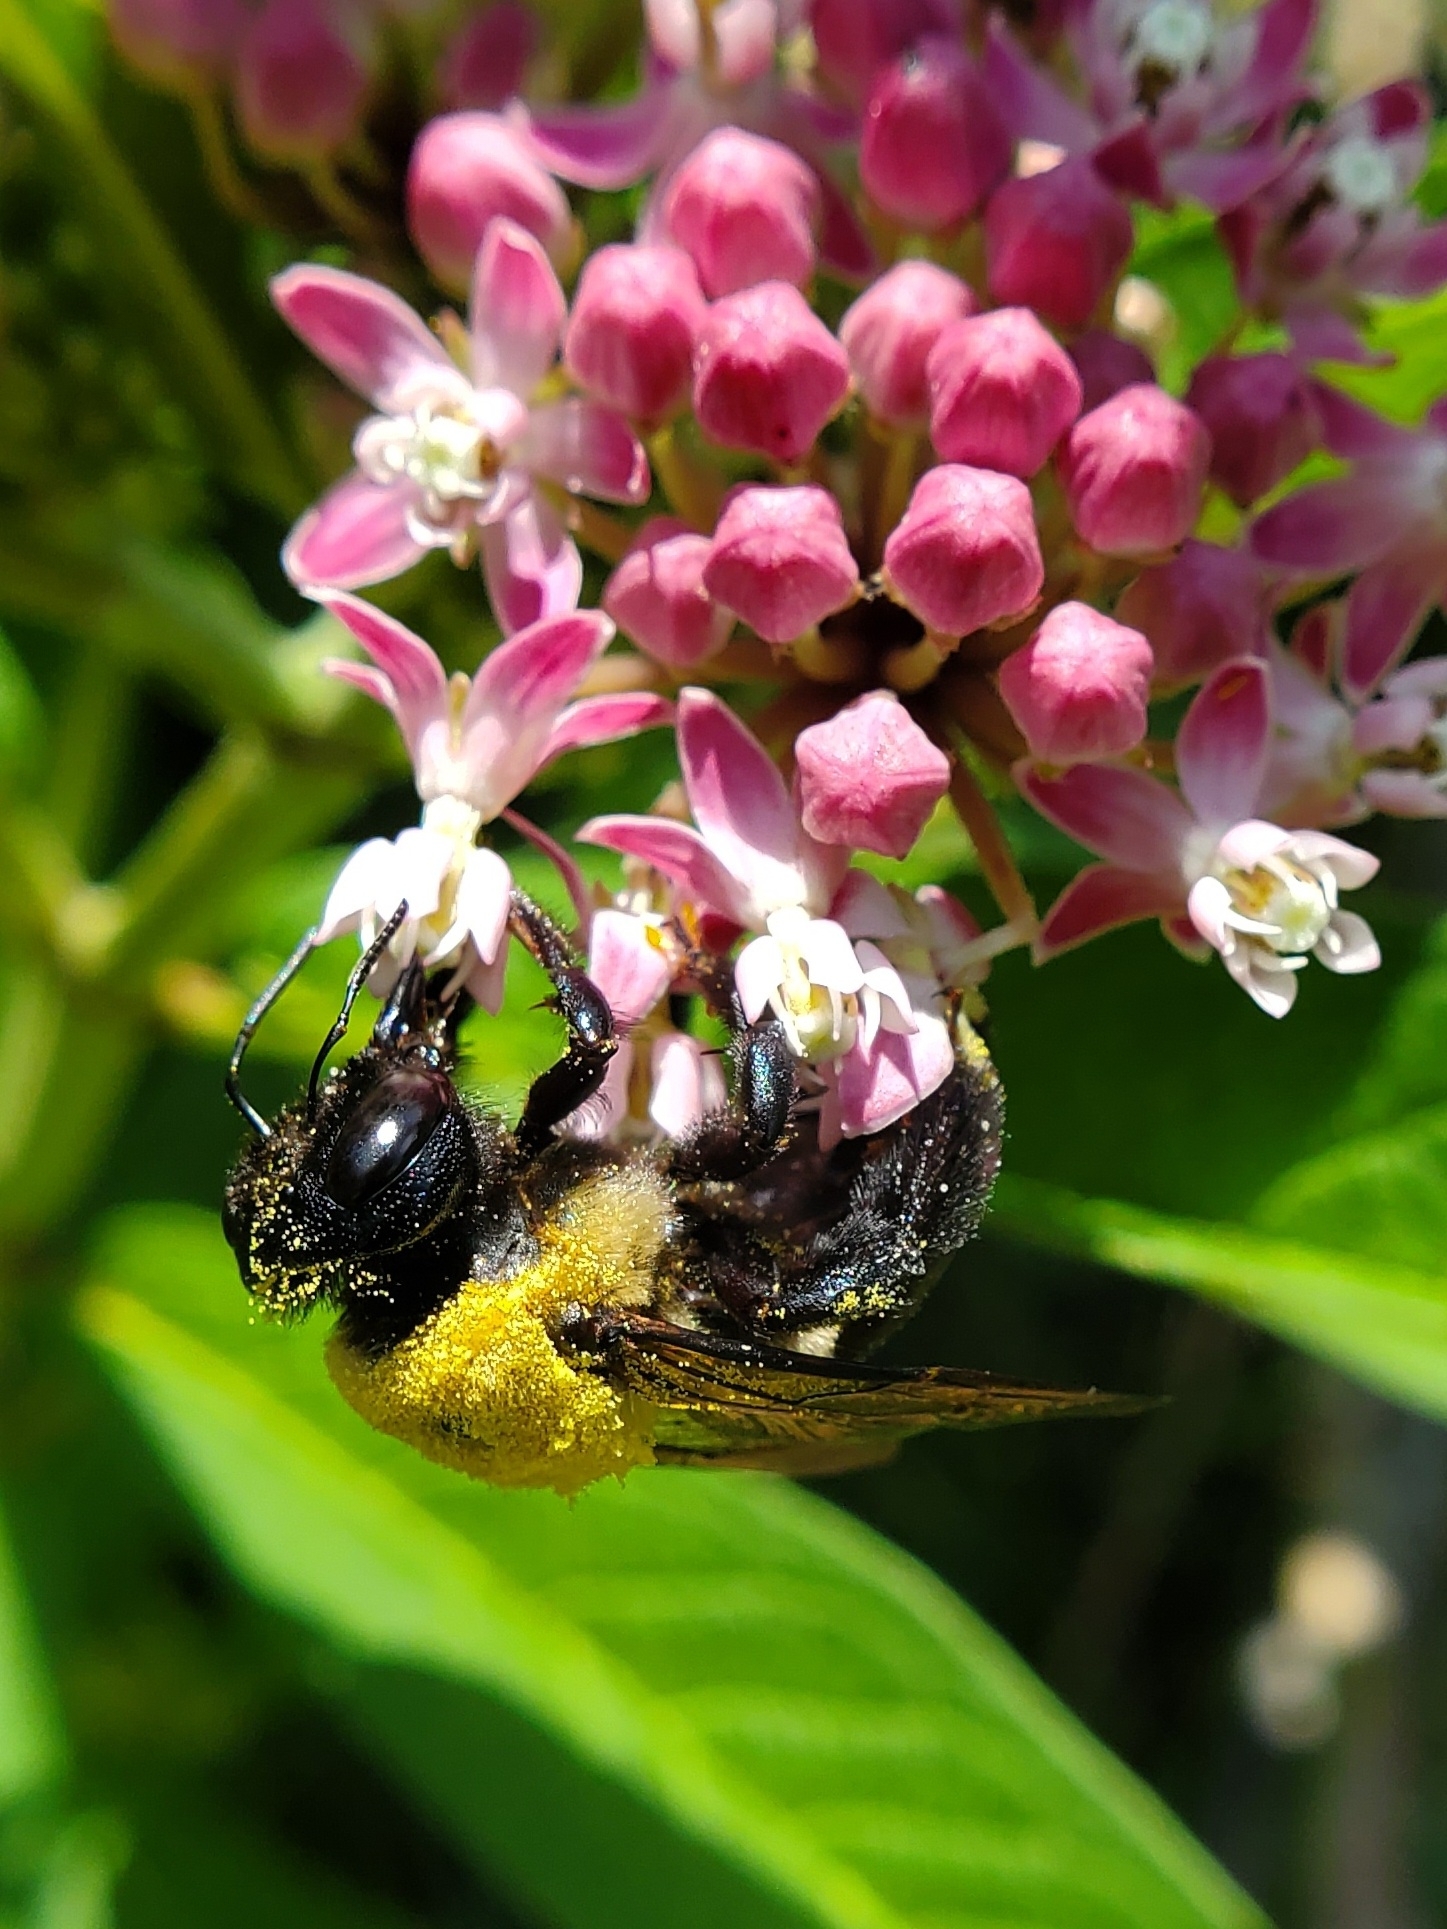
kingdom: Animalia
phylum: Arthropoda
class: Insecta
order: Hymenoptera
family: Apidae
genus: Xylocopa
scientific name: Xylocopa virginica
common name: Carpenter bee
